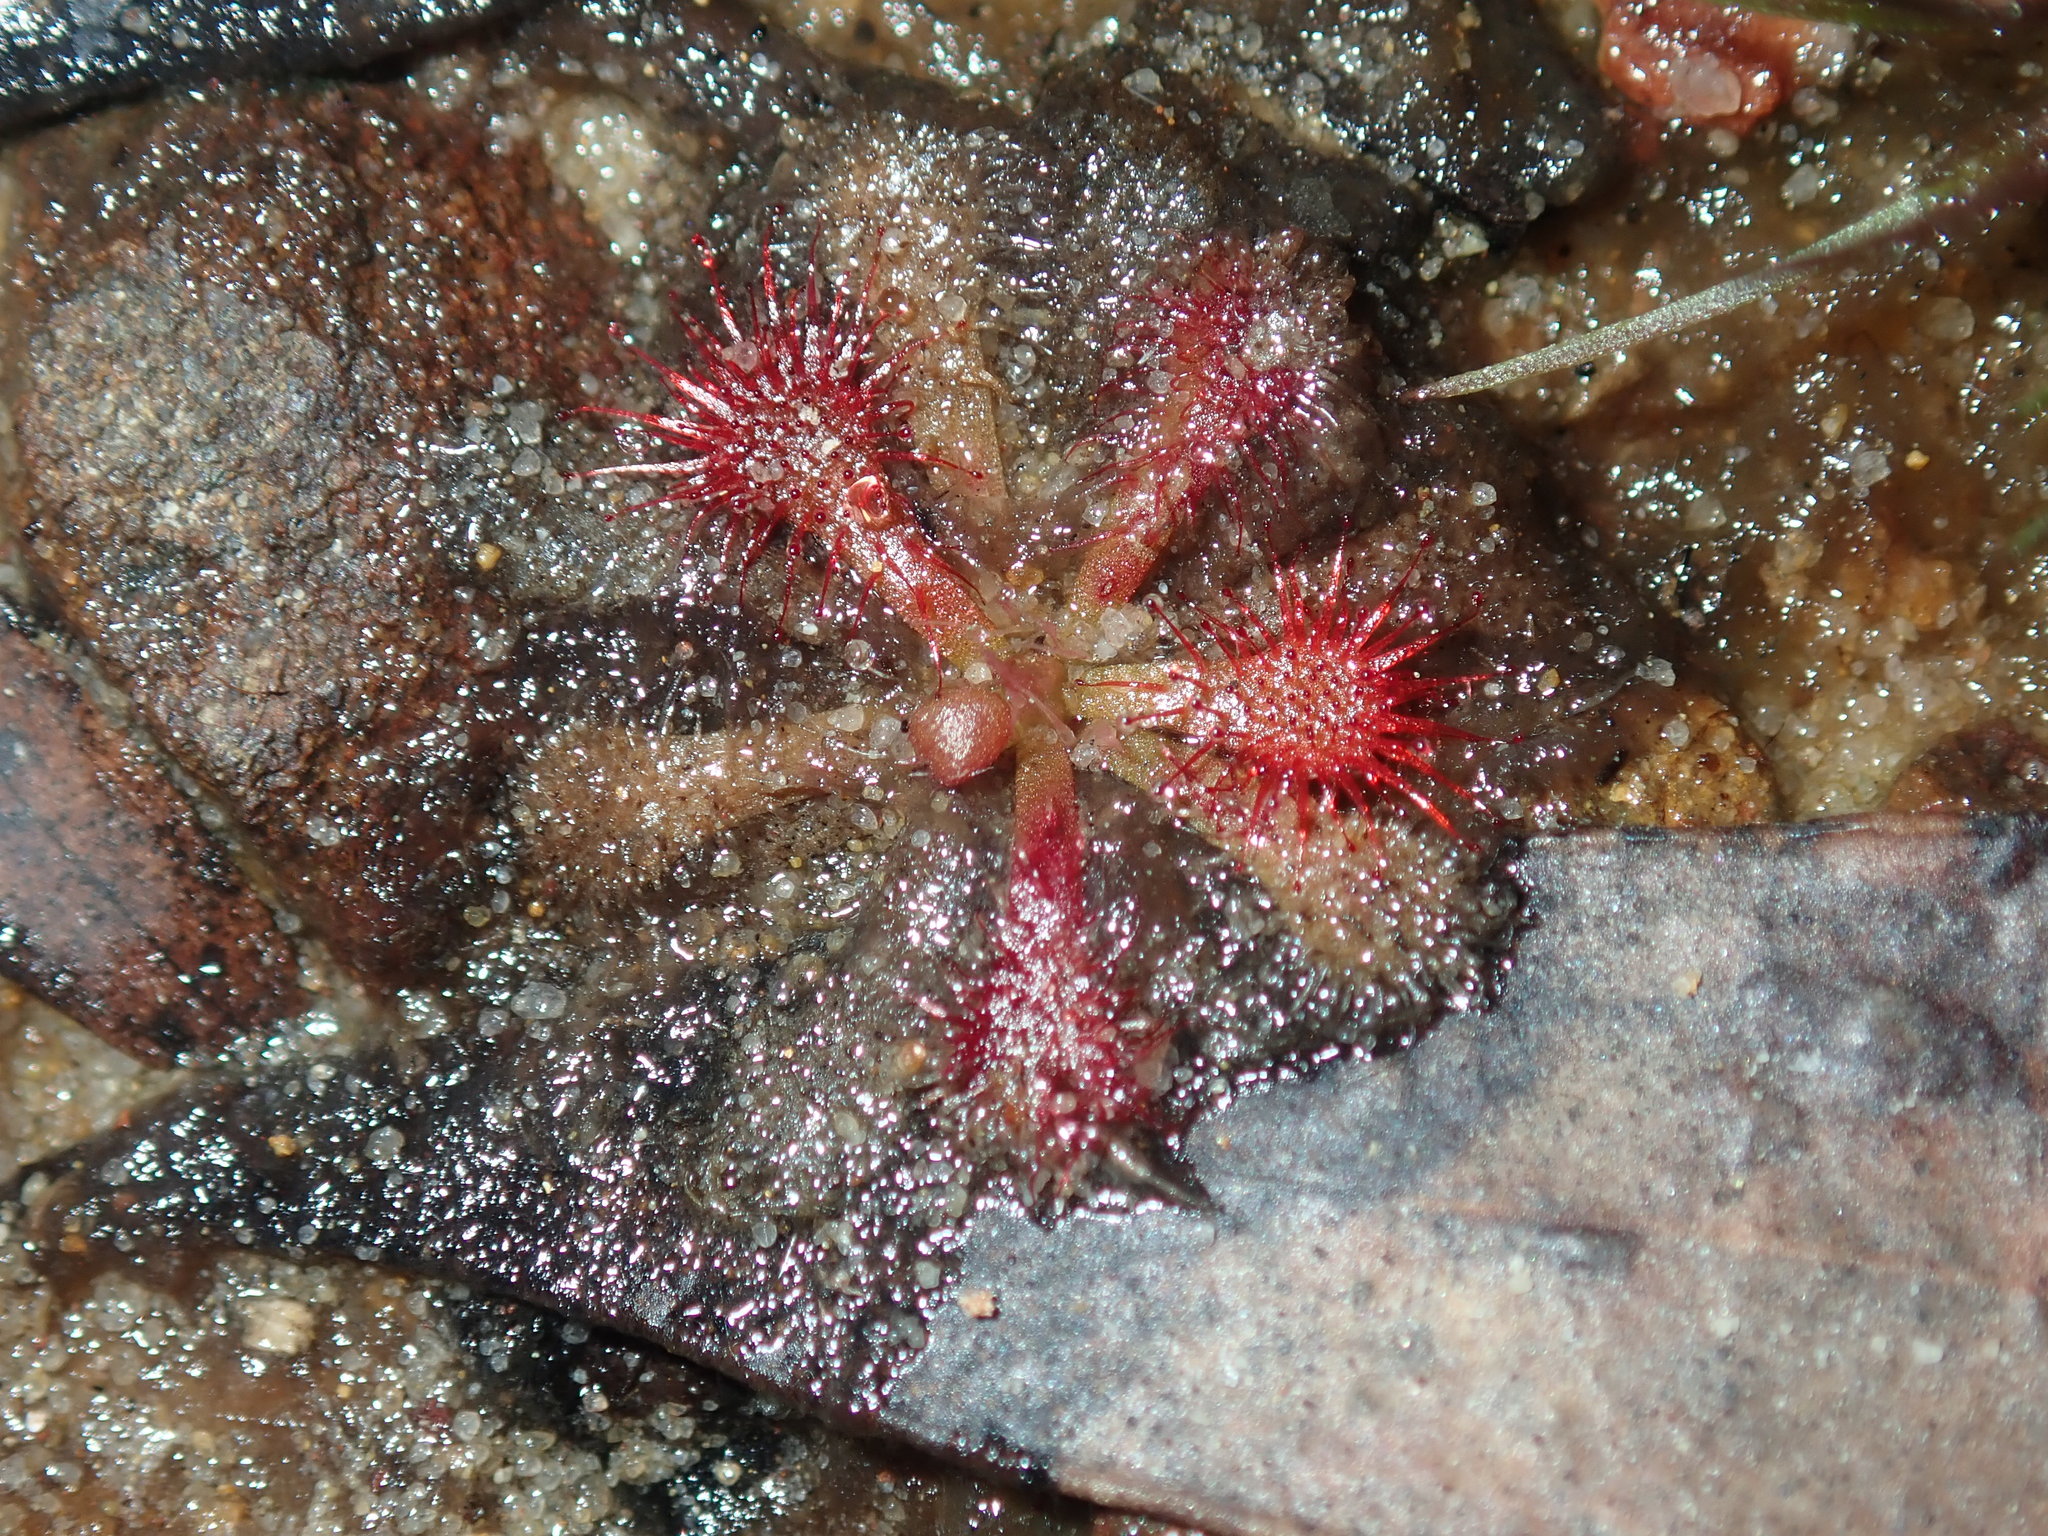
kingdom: Plantae
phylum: Tracheophyta
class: Magnoliopsida
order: Caryophyllales
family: Droseraceae
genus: Drosera
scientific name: Drosera spatulata
